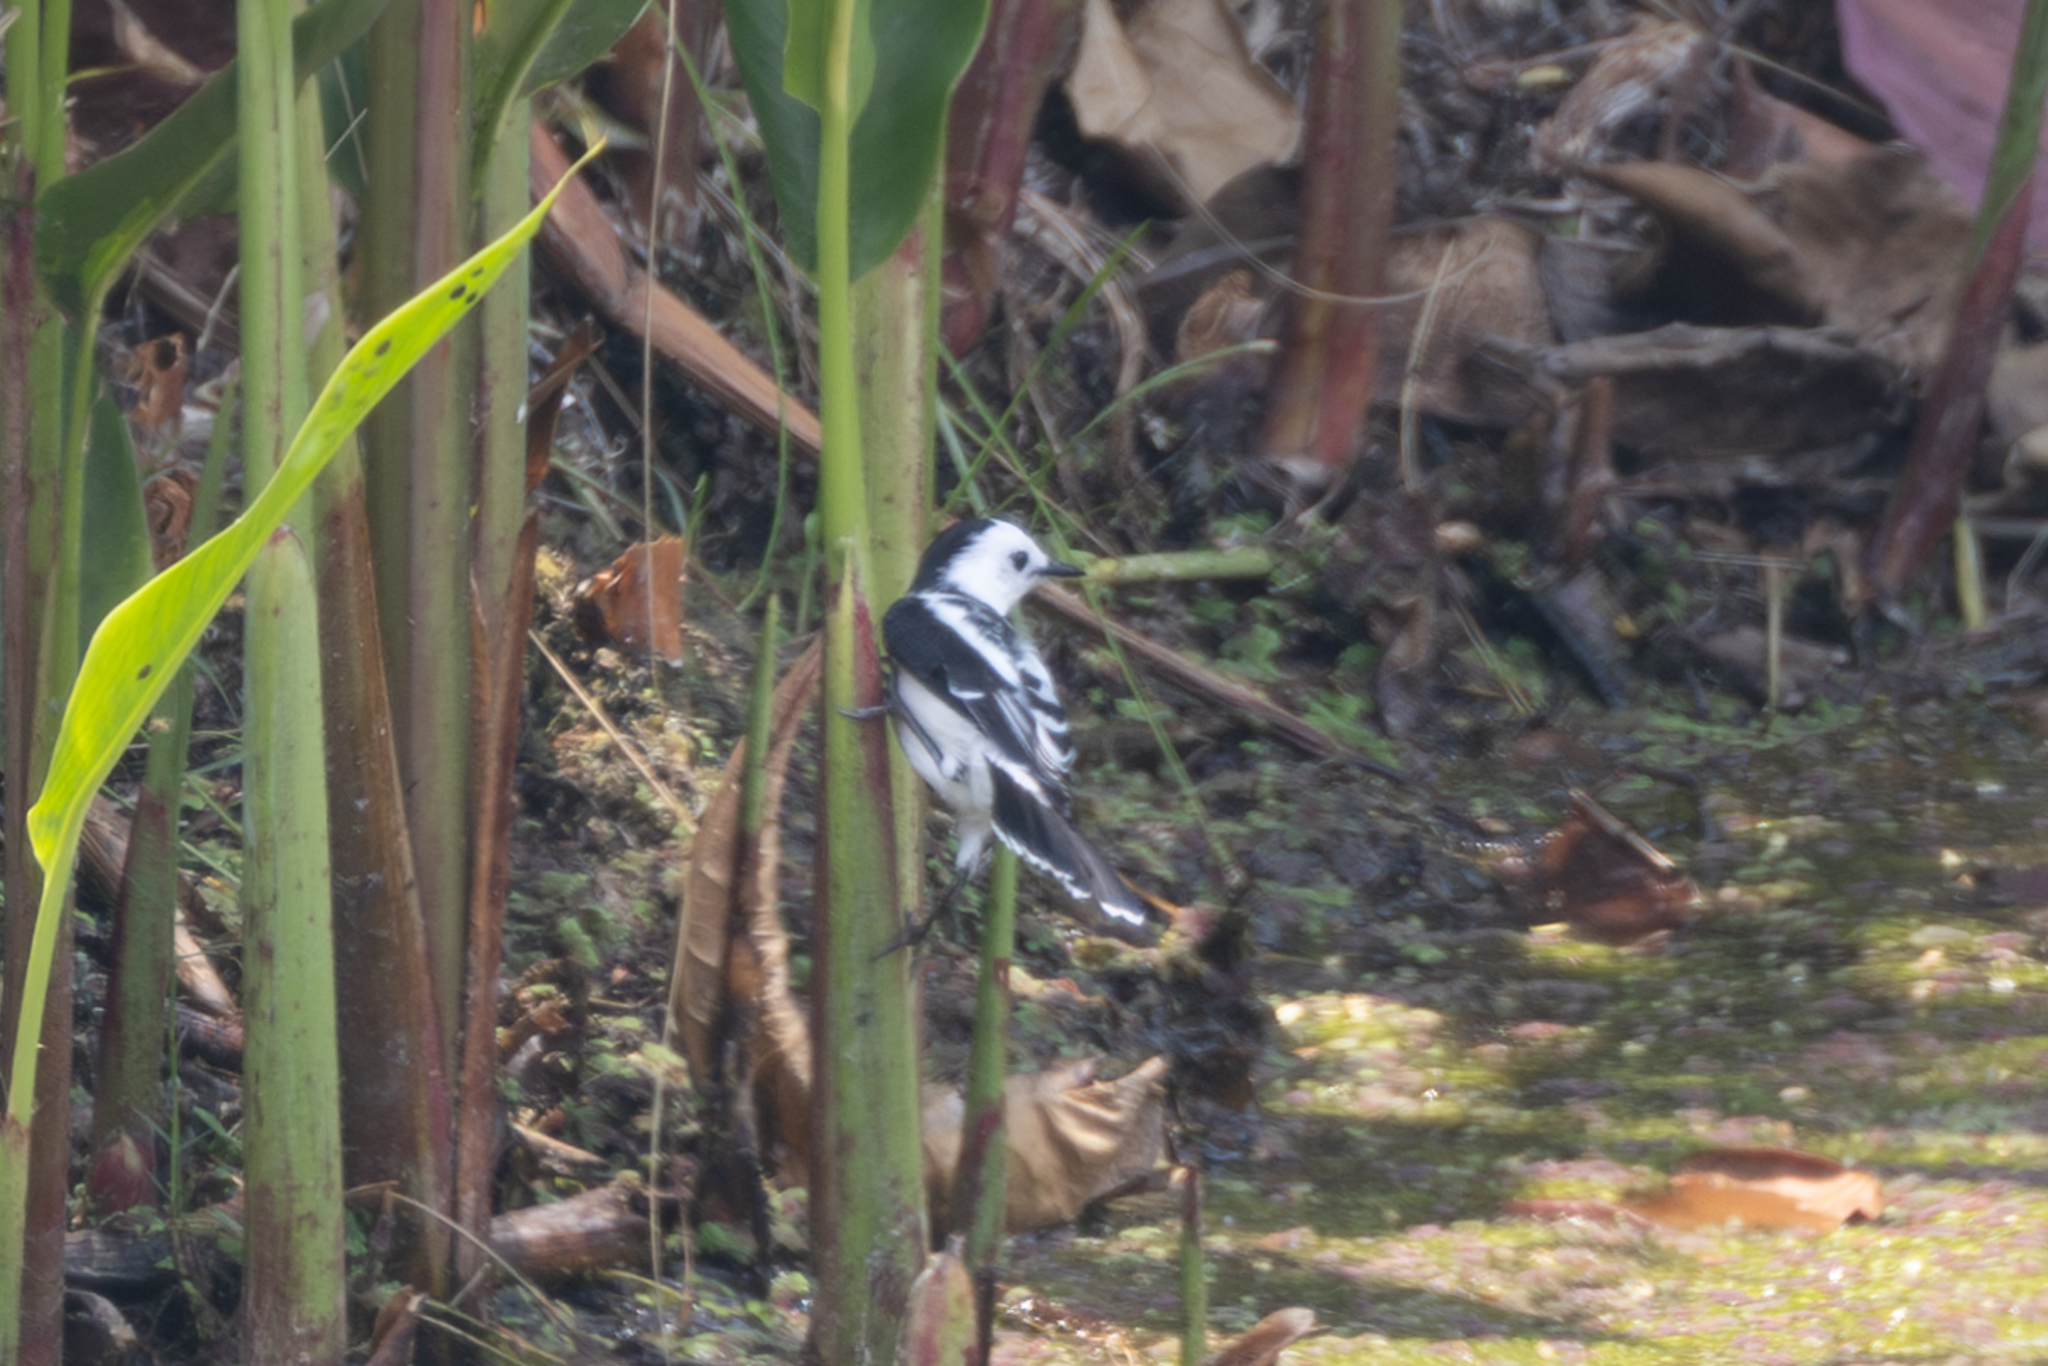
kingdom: Animalia
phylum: Chordata
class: Aves
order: Passeriformes
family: Tyrannidae
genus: Fluvicola
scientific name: Fluvicola pica
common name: Pied water-tyrant
